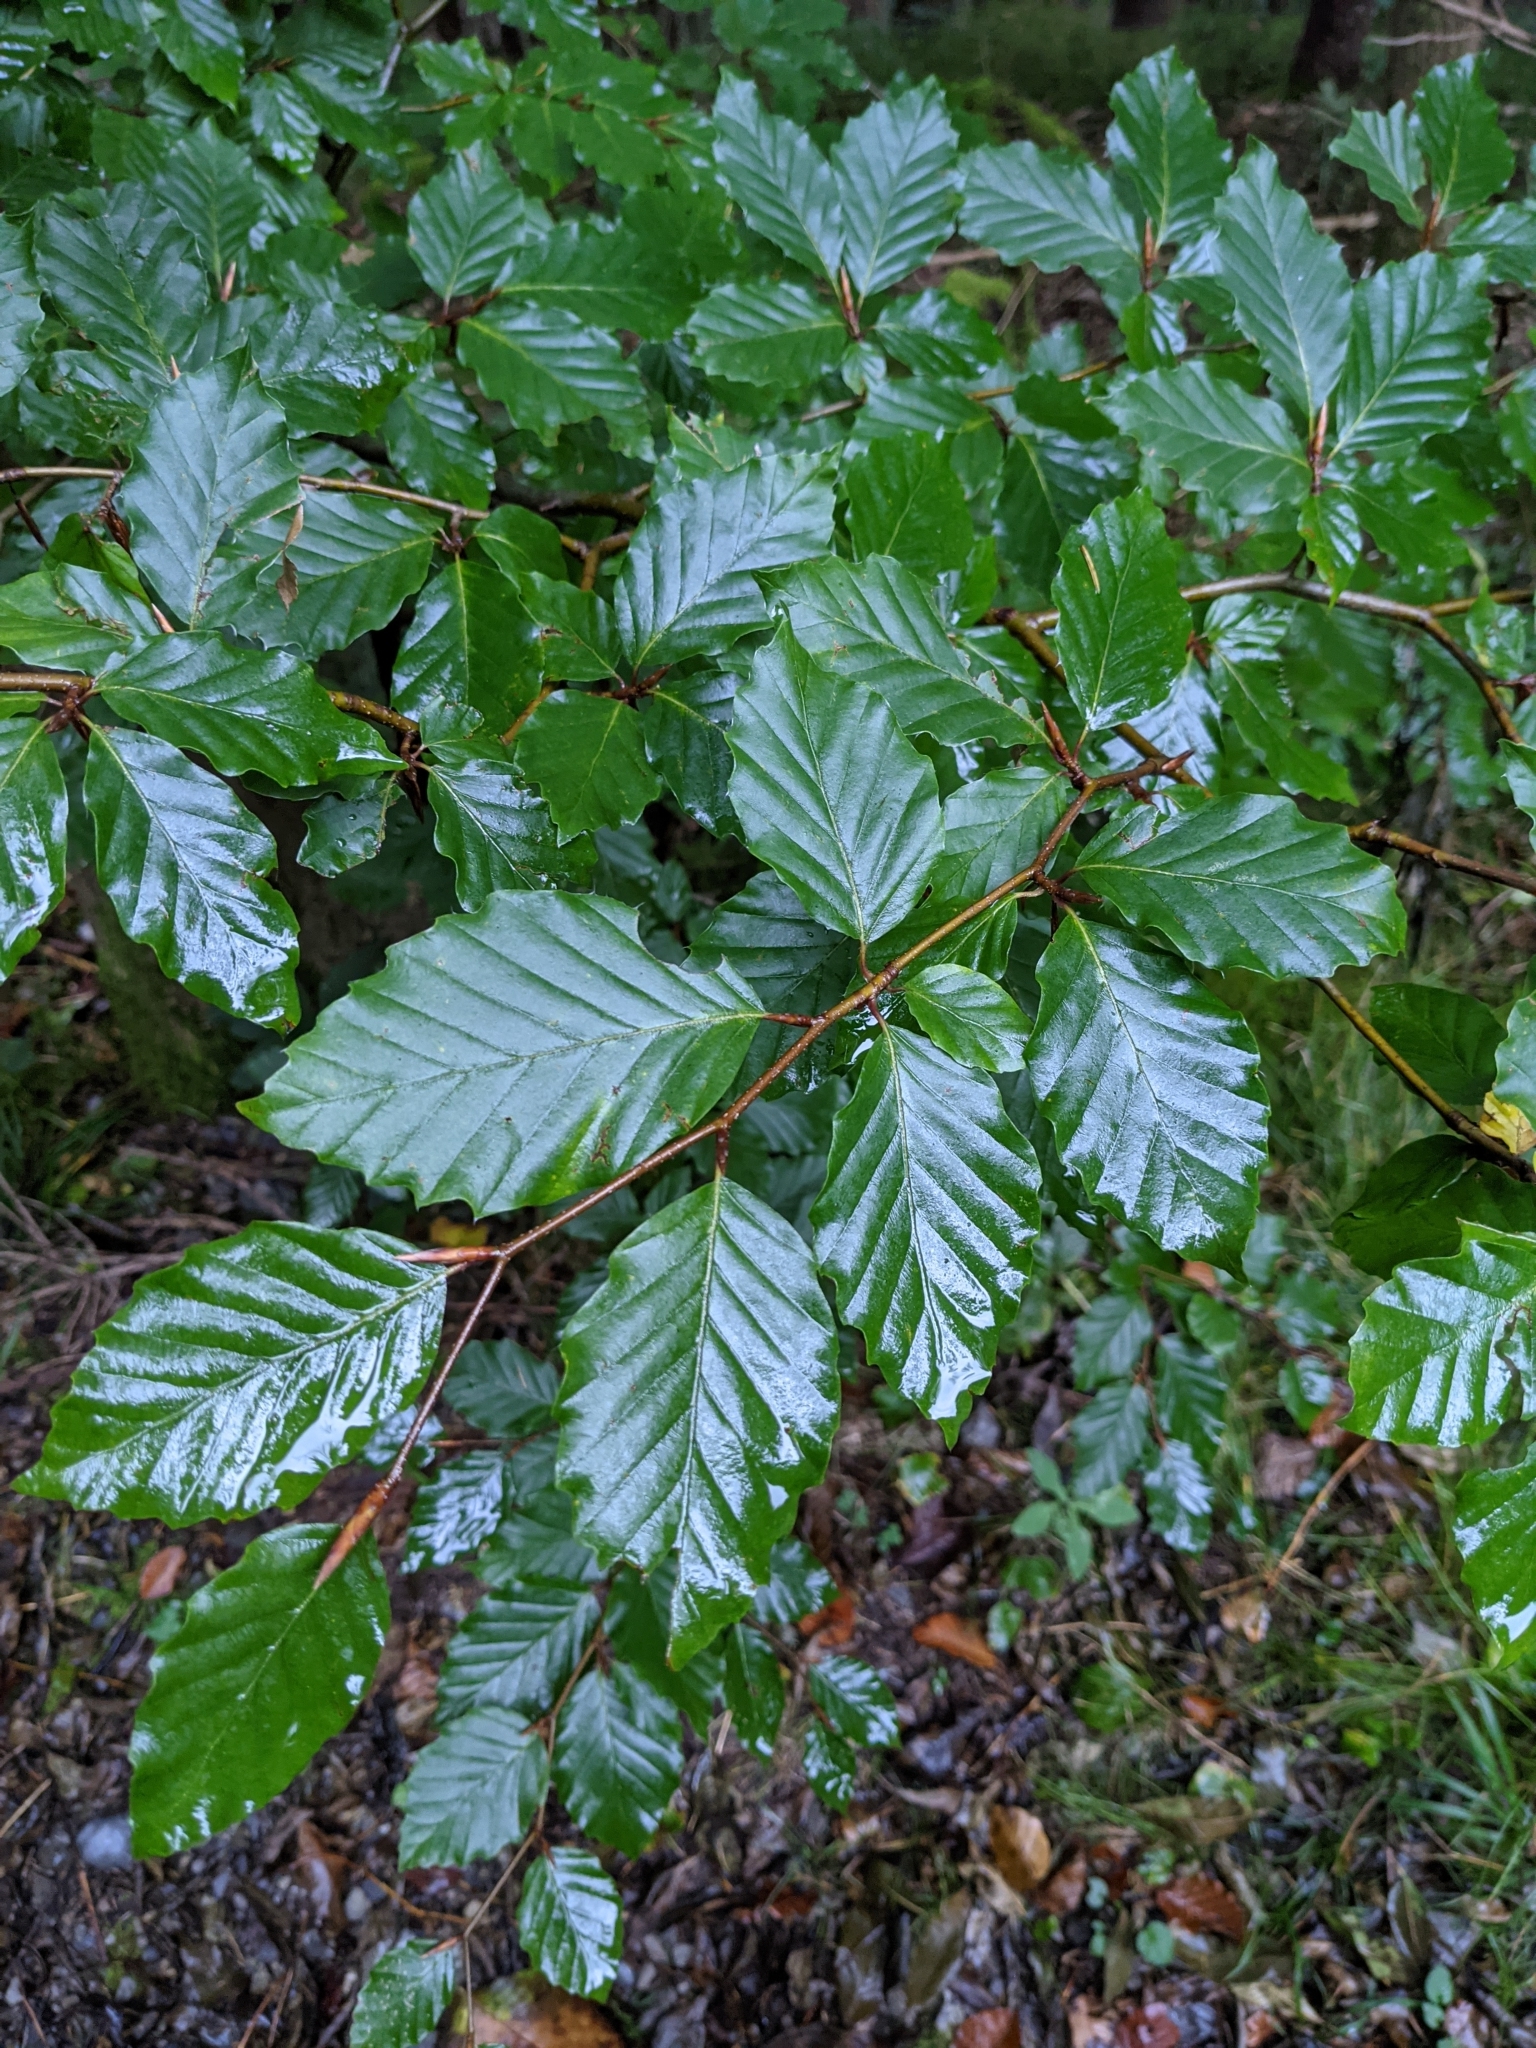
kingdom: Plantae
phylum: Tracheophyta
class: Magnoliopsida
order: Fagales
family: Fagaceae
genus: Fagus
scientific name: Fagus sylvatica
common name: Beech
